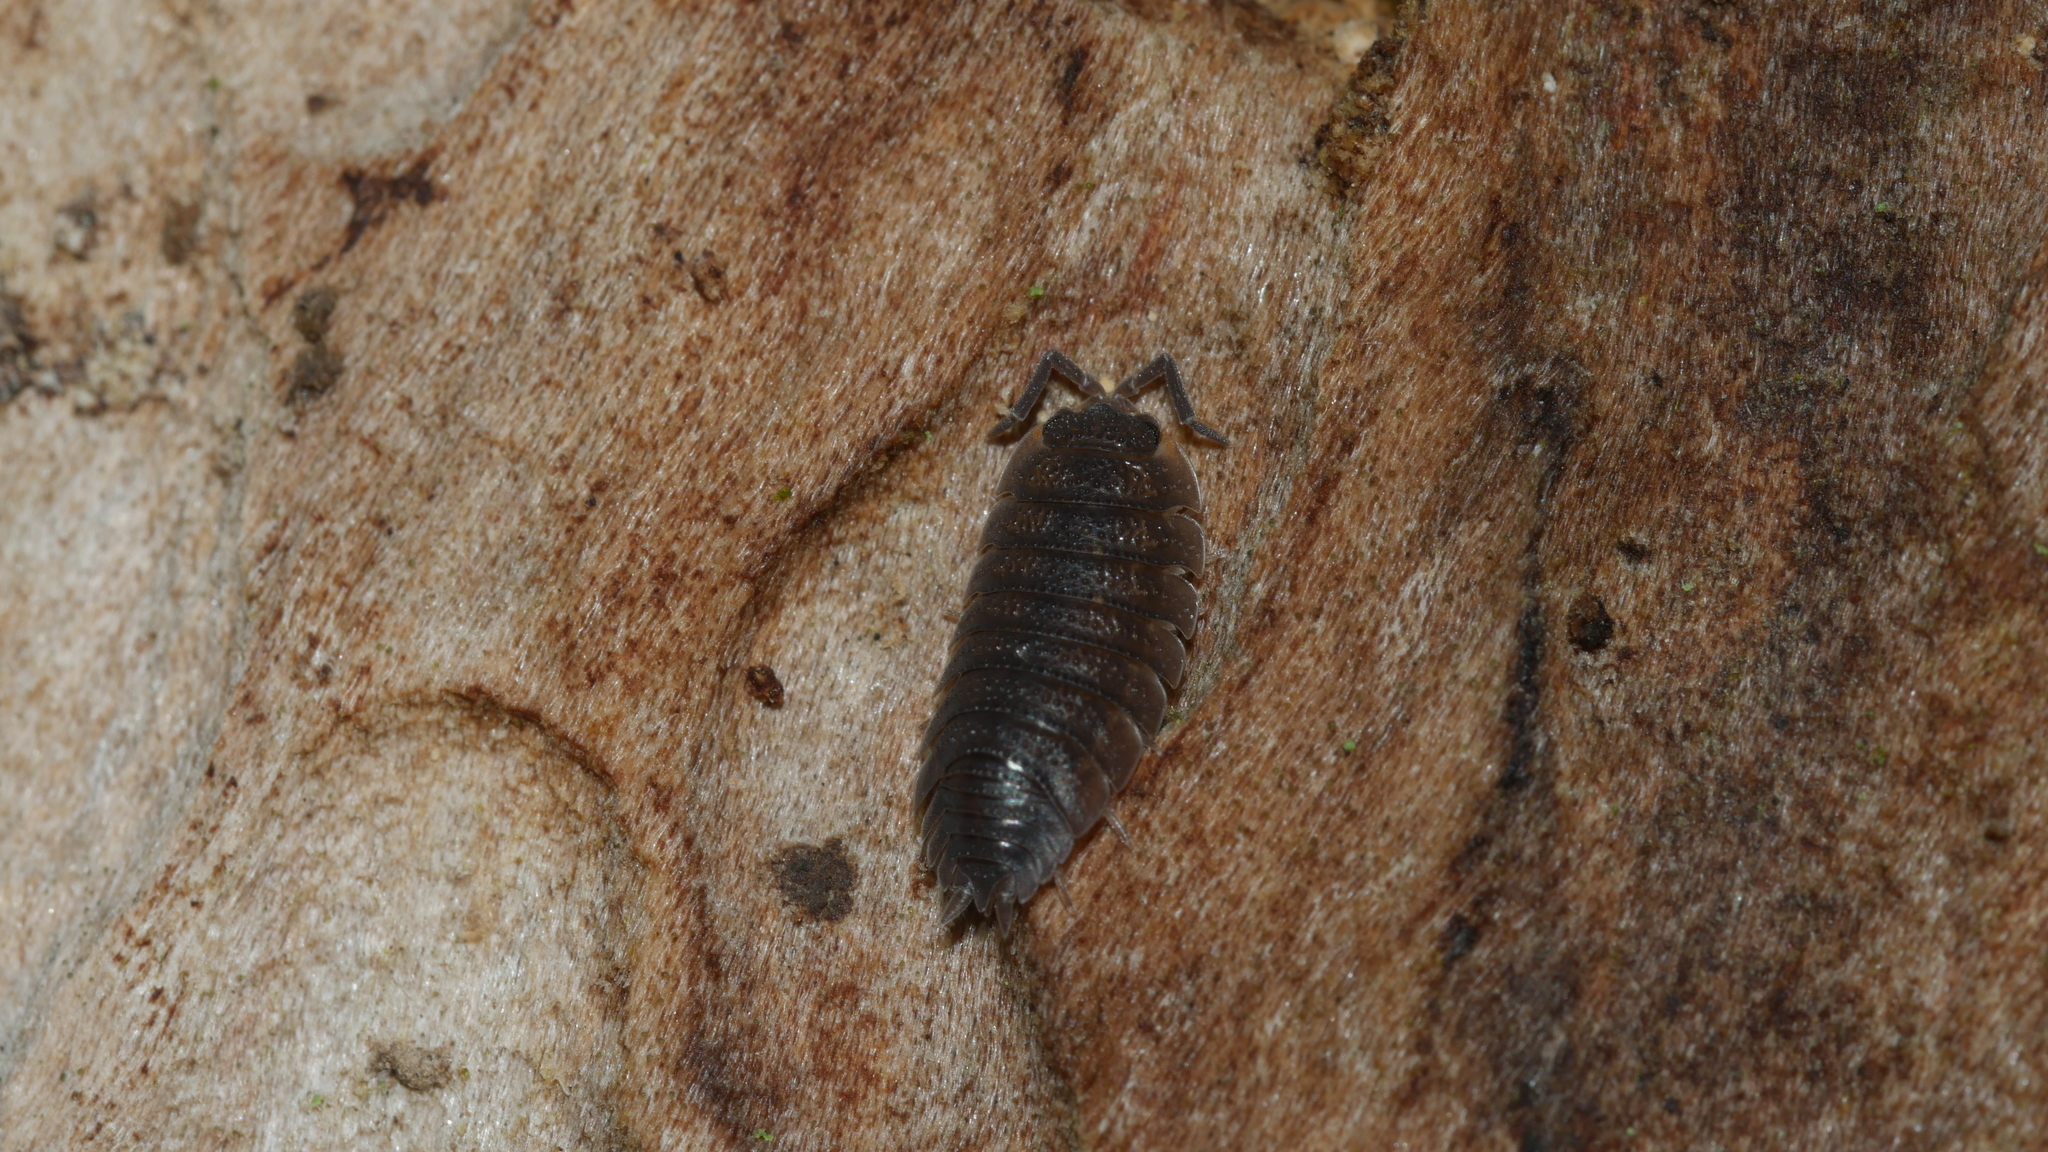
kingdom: Animalia
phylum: Arthropoda
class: Malacostraca
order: Isopoda
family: Porcellionidae
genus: Porcellio
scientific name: Porcellio scaber
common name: Common rough woodlouse
